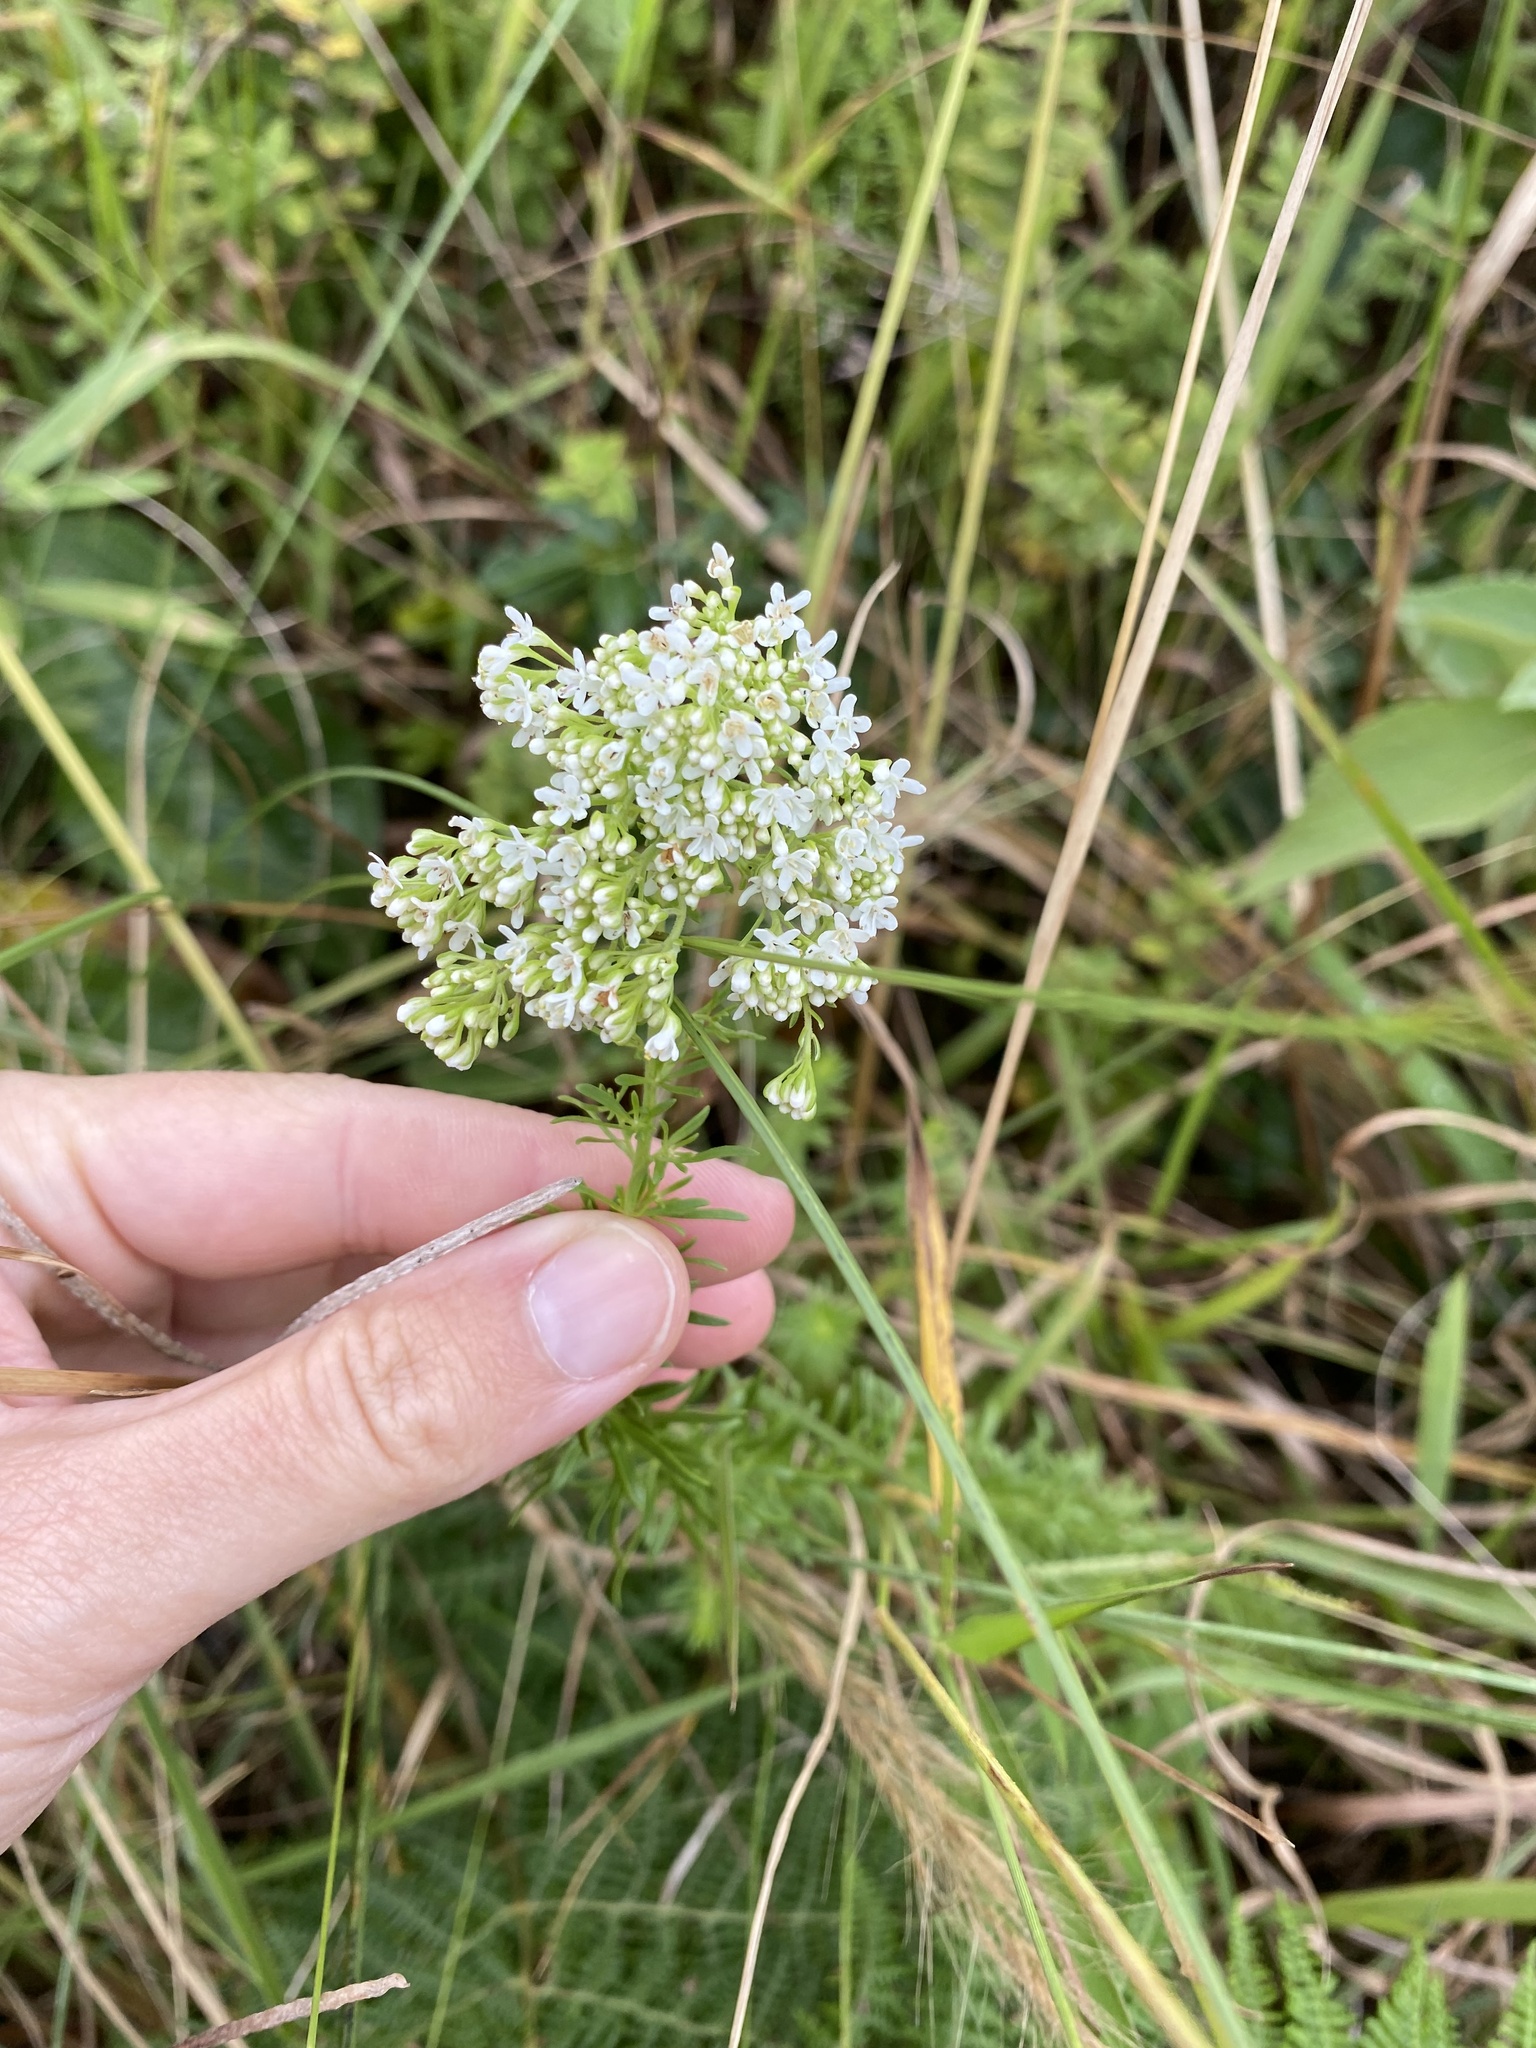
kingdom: Plantae
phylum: Tracheophyta
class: Magnoliopsida
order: Lamiales
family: Scrophulariaceae
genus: Tetraselago
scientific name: Tetraselago natalensis
